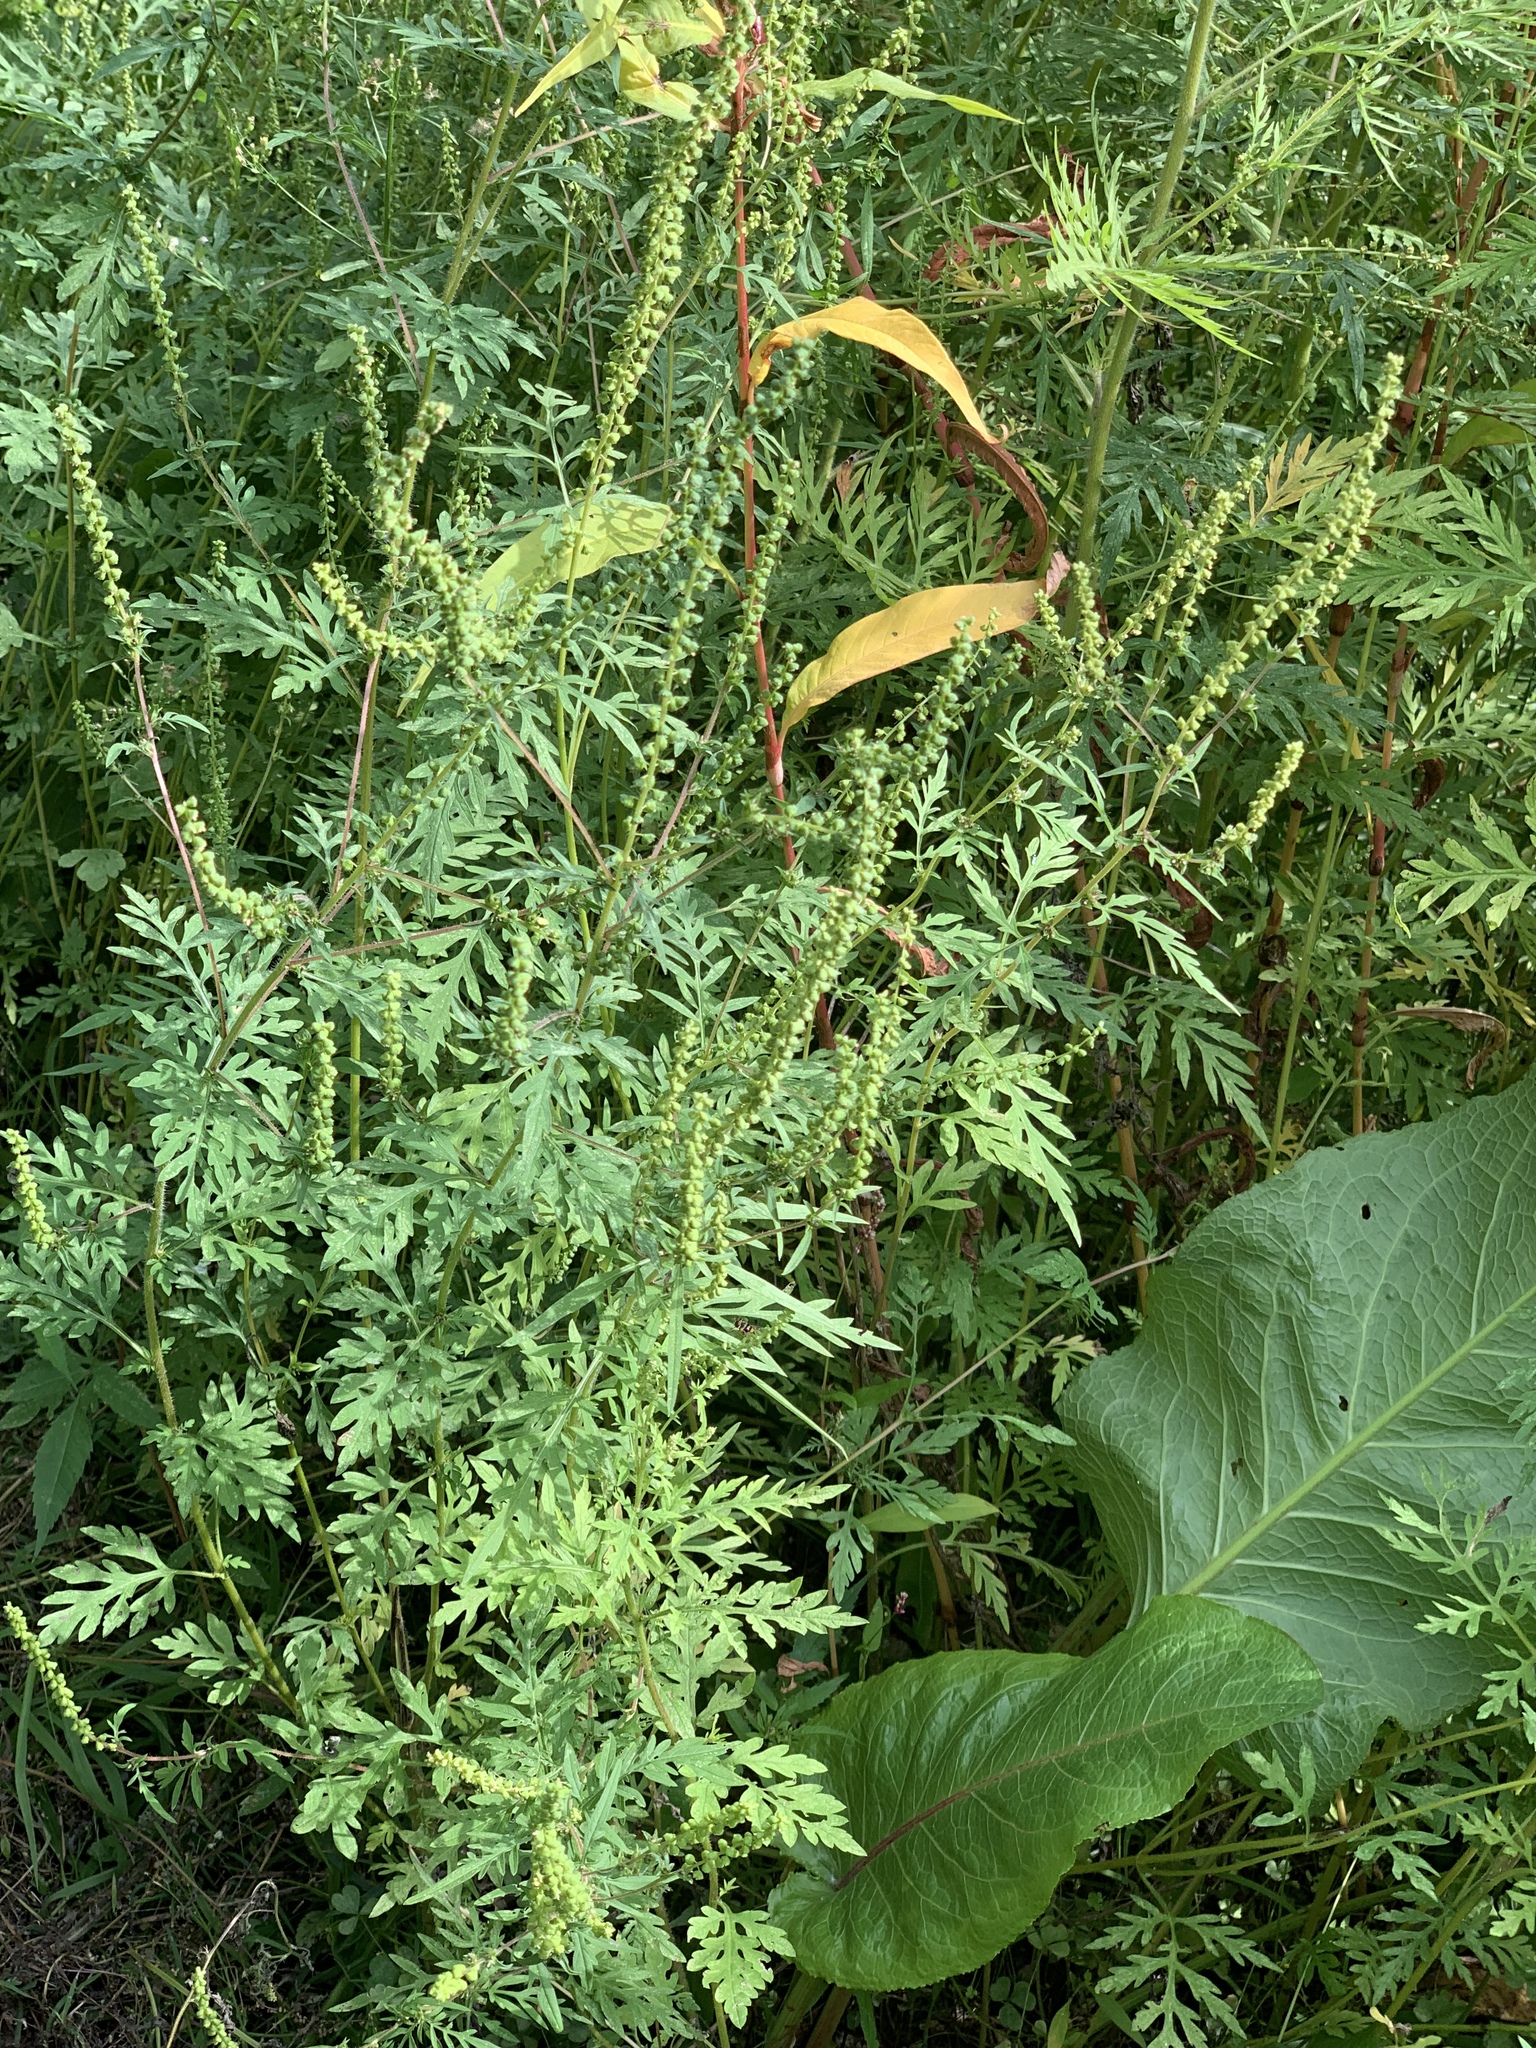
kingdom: Plantae
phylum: Tracheophyta
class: Magnoliopsida
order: Asterales
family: Asteraceae
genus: Ambrosia
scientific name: Ambrosia artemisiifolia
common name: Annual ragweed
